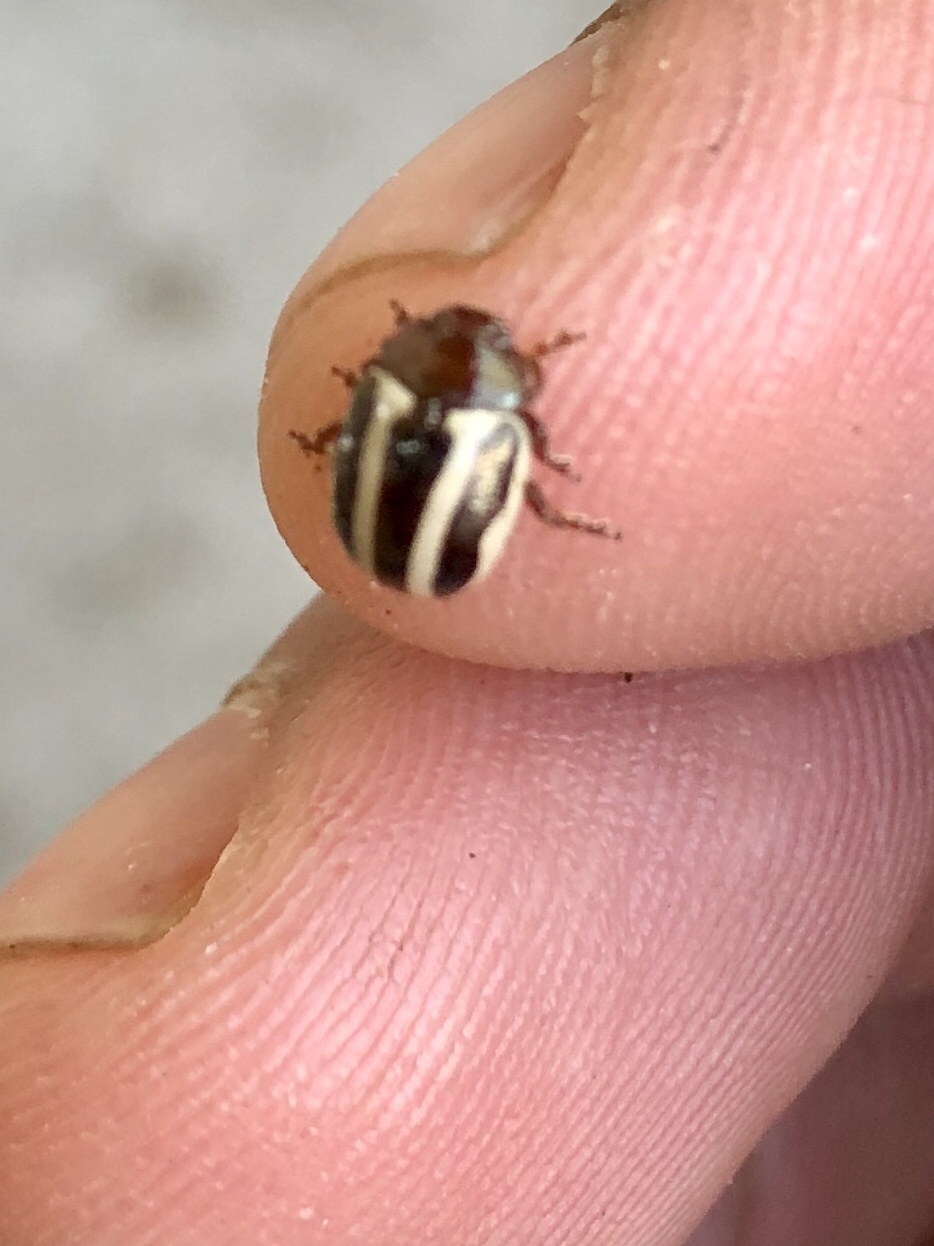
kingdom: Animalia
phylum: Arthropoda
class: Insecta
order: Coleoptera
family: Chrysomelidae
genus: Calligrapha
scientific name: Calligrapha bidenticola
